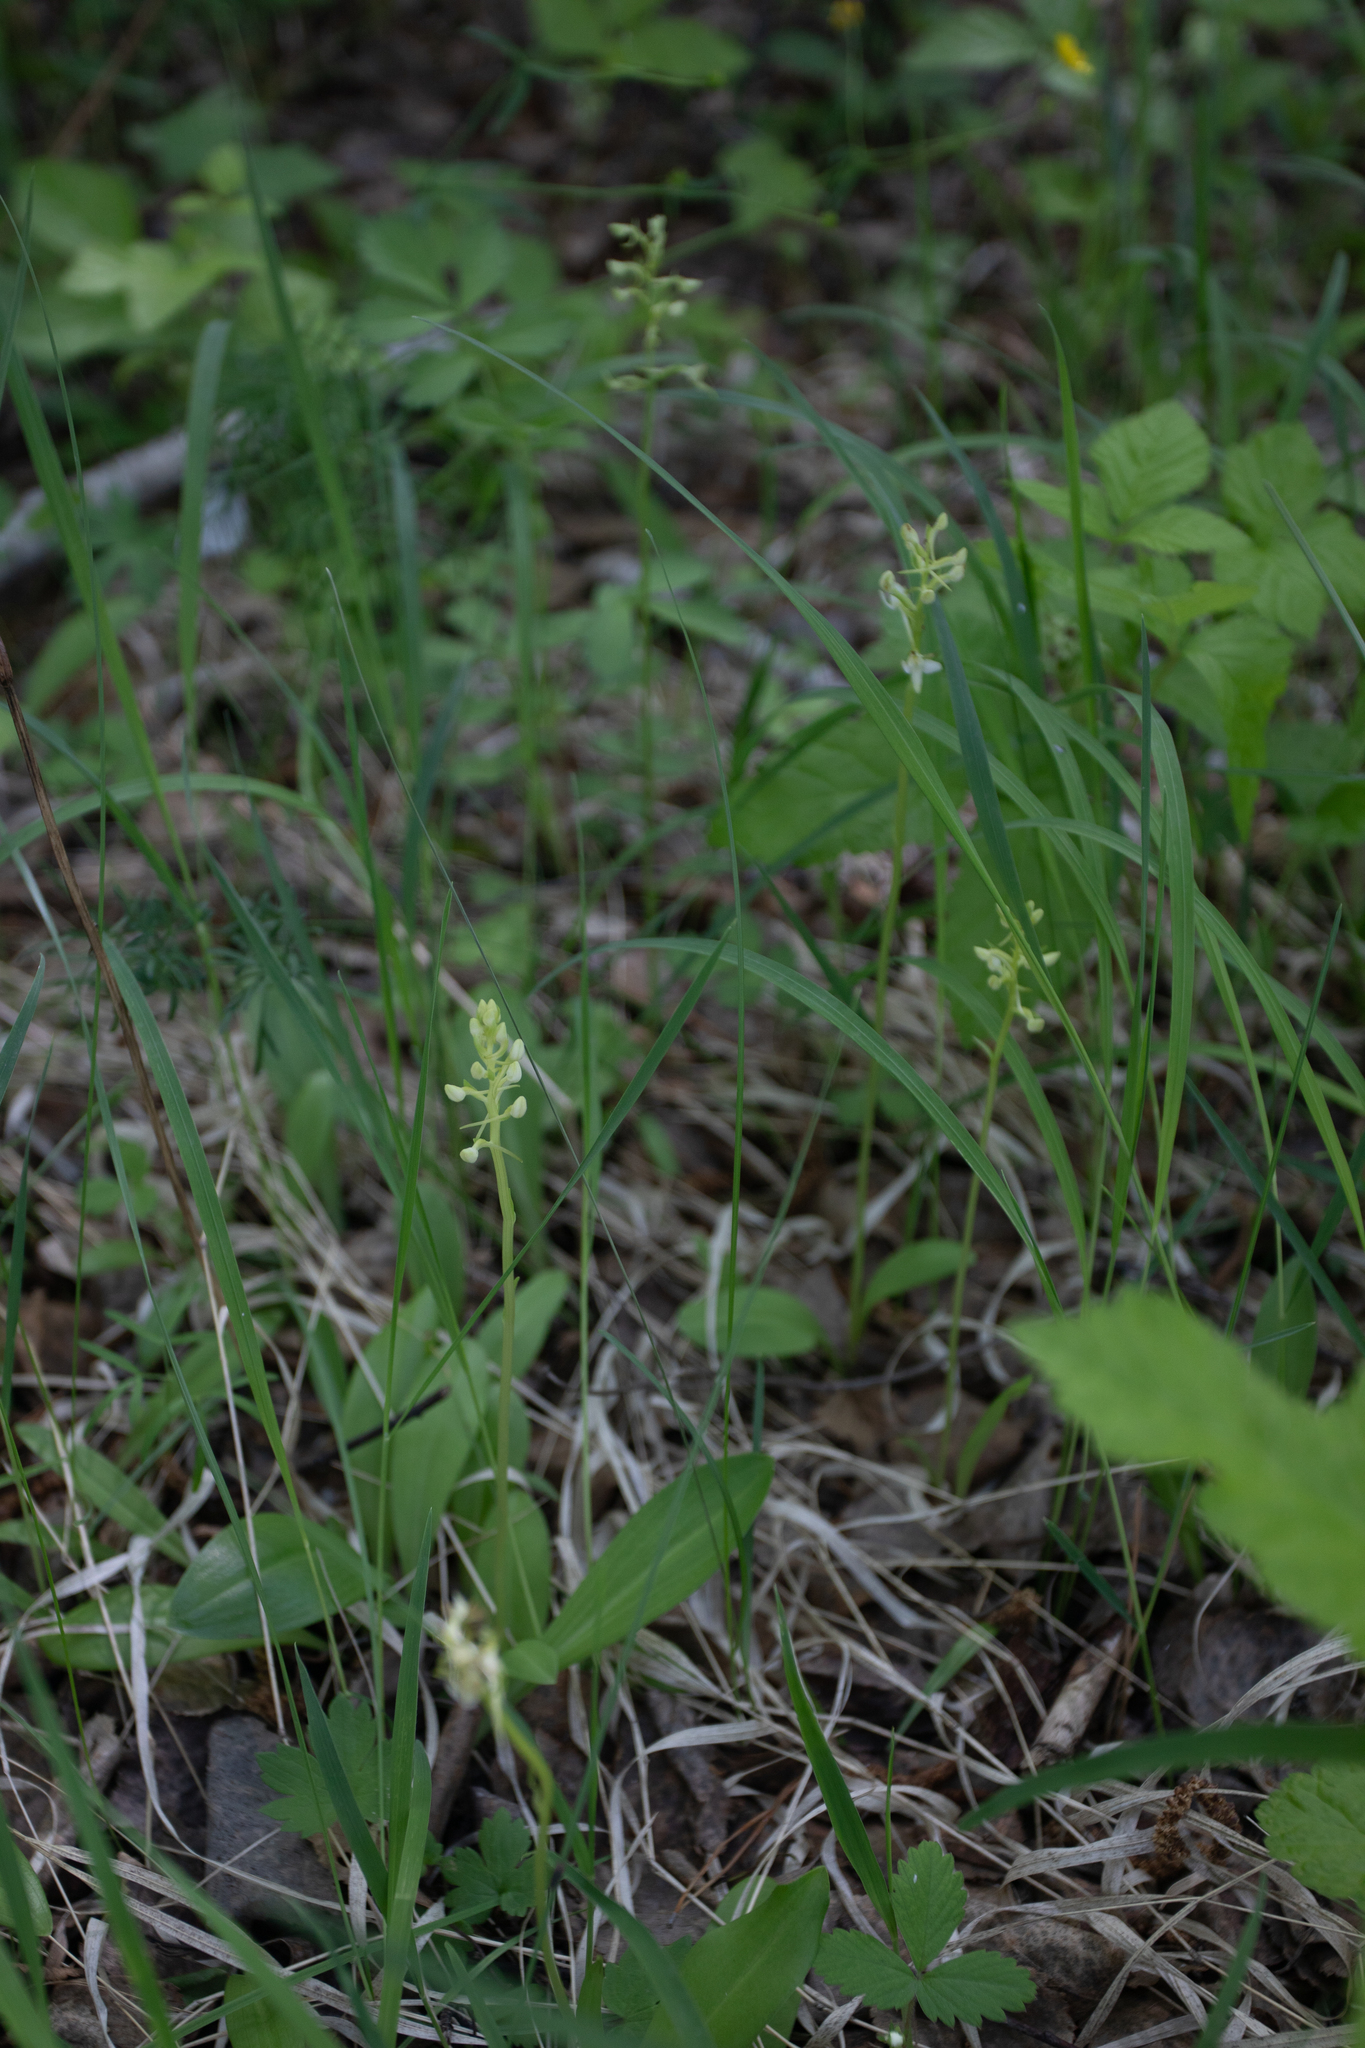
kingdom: Plantae
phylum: Tracheophyta
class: Liliopsida
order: Asparagales
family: Orchidaceae
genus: Platanthera
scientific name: Platanthera bifolia
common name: Lesser butterfly-orchid
